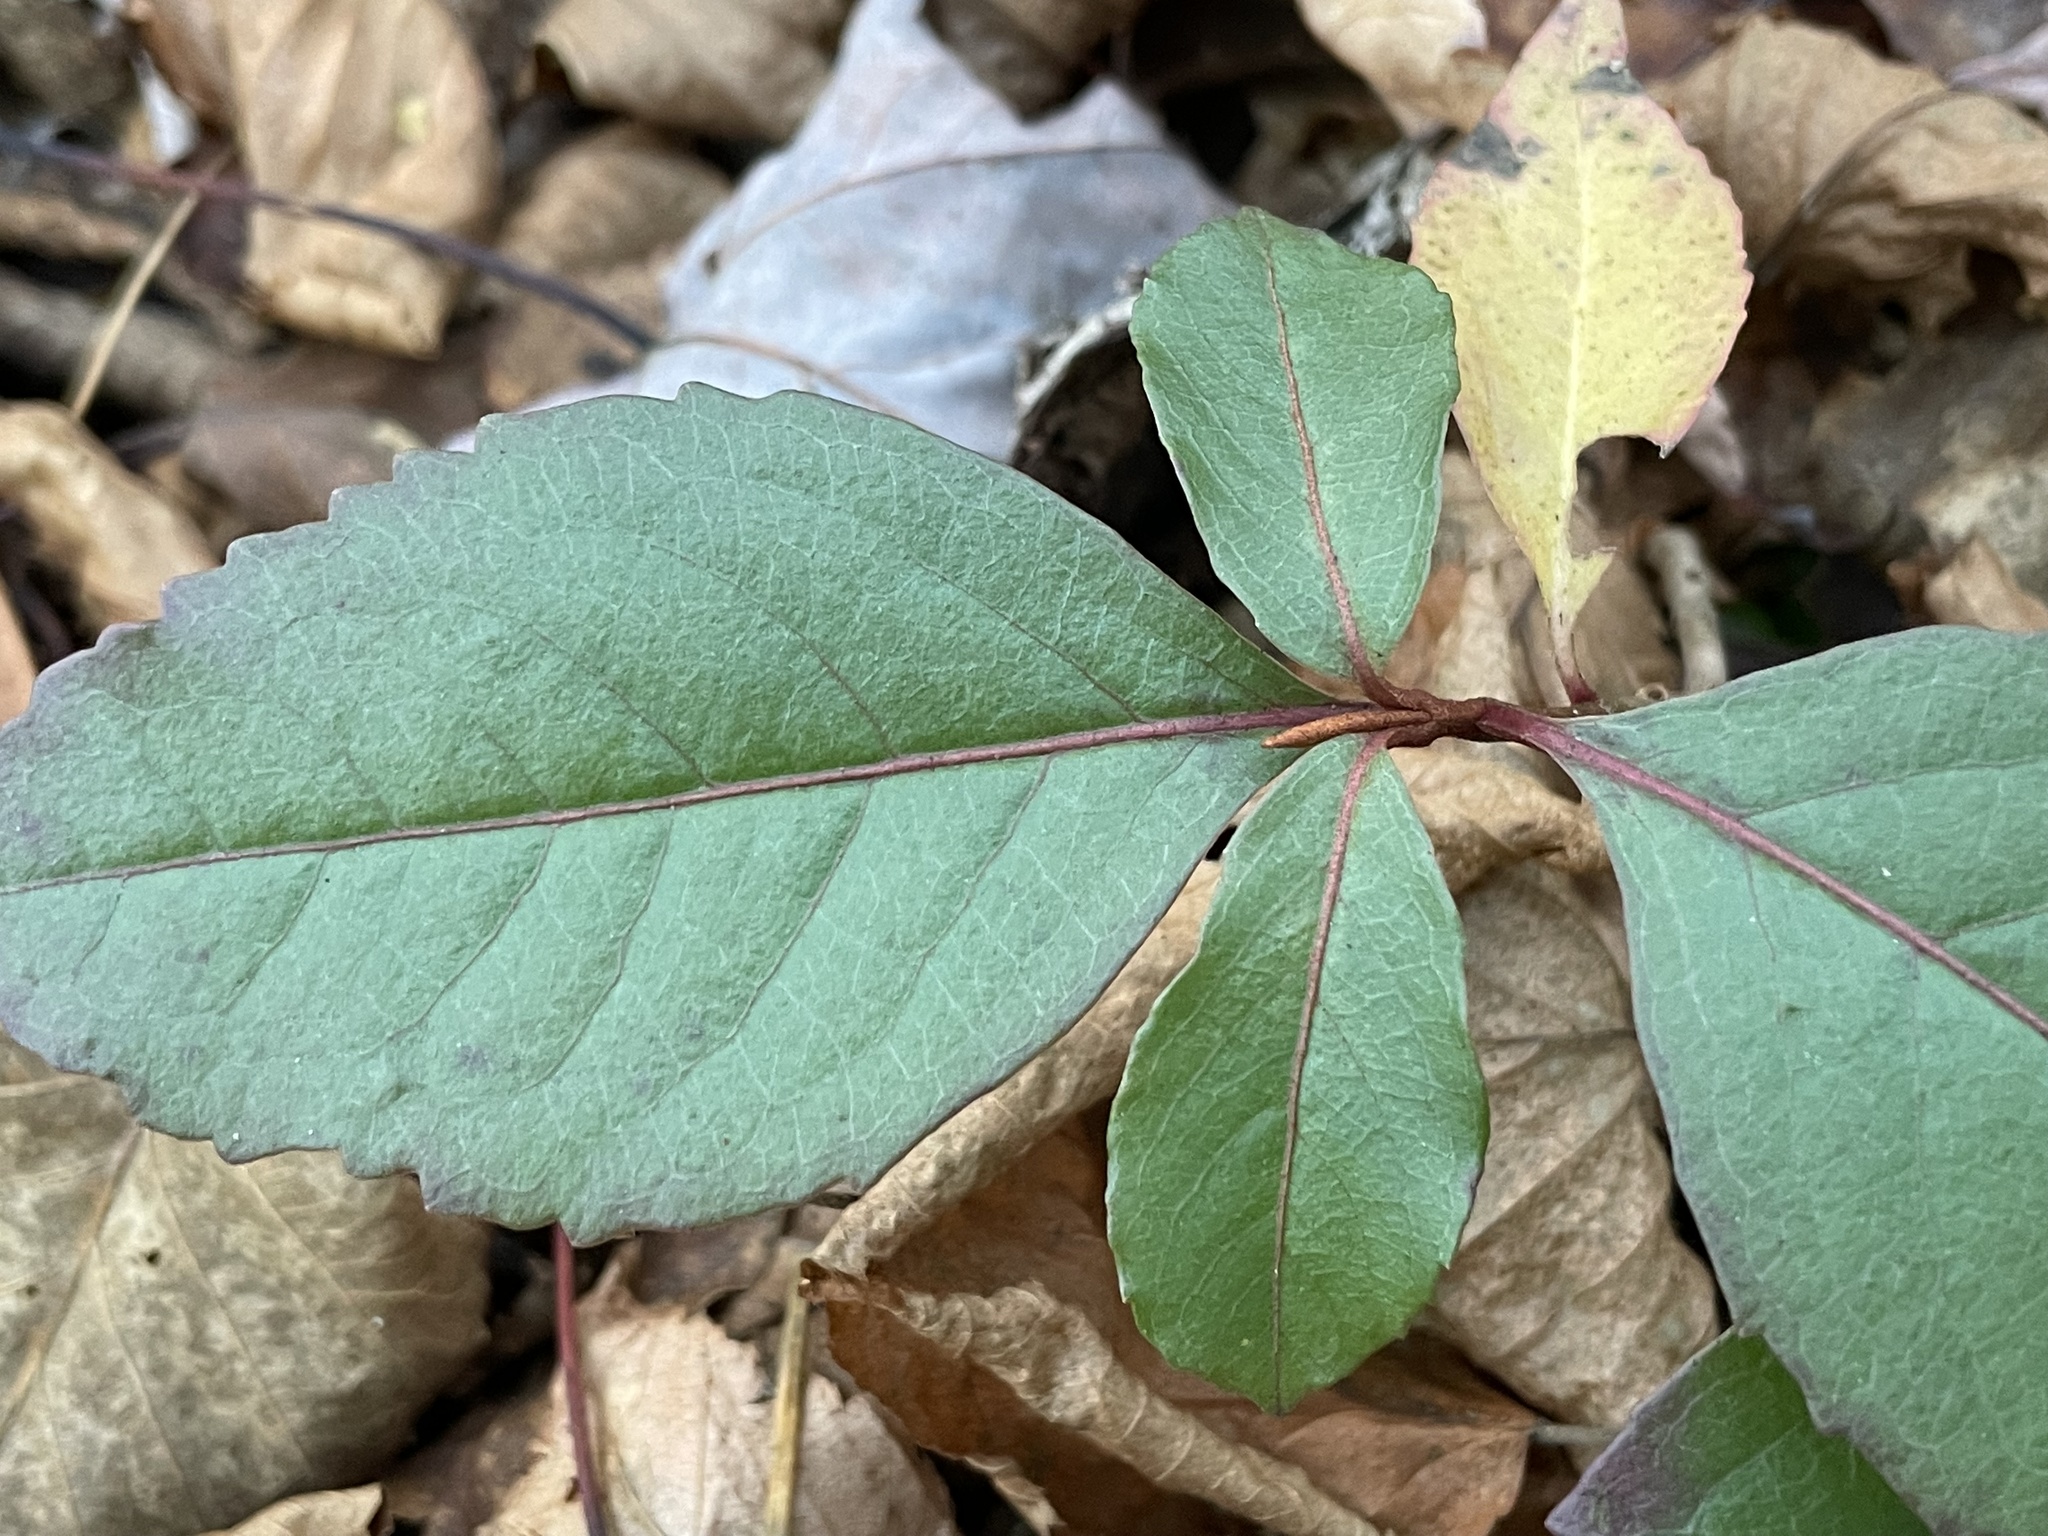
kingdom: Plantae
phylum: Tracheophyta
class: Magnoliopsida
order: Dipsacales
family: Viburnaceae
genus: Viburnum
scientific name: Viburnum cassinoides
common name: Swamp haw
